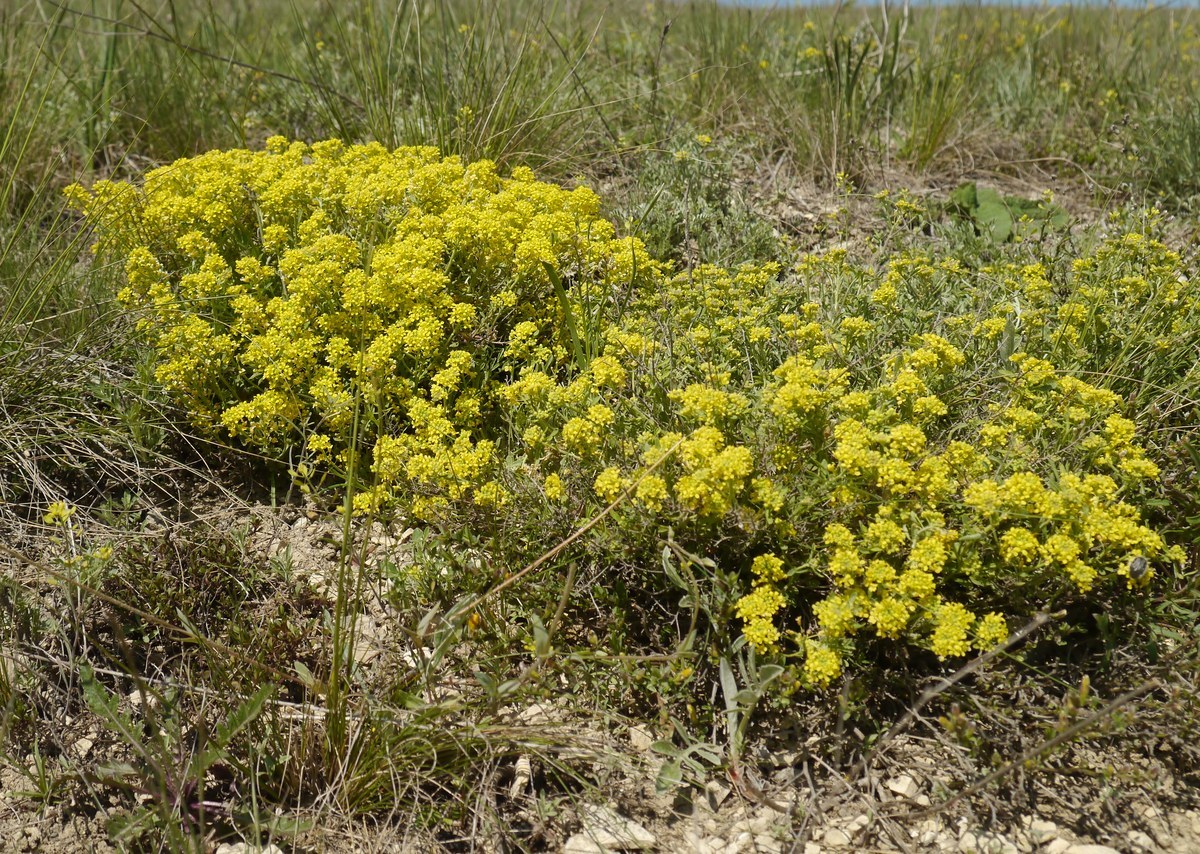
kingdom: Plantae
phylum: Tracheophyta
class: Magnoliopsida
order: Brassicales
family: Brassicaceae
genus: Odontarrhena
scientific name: Odontarrhena tortuosa
